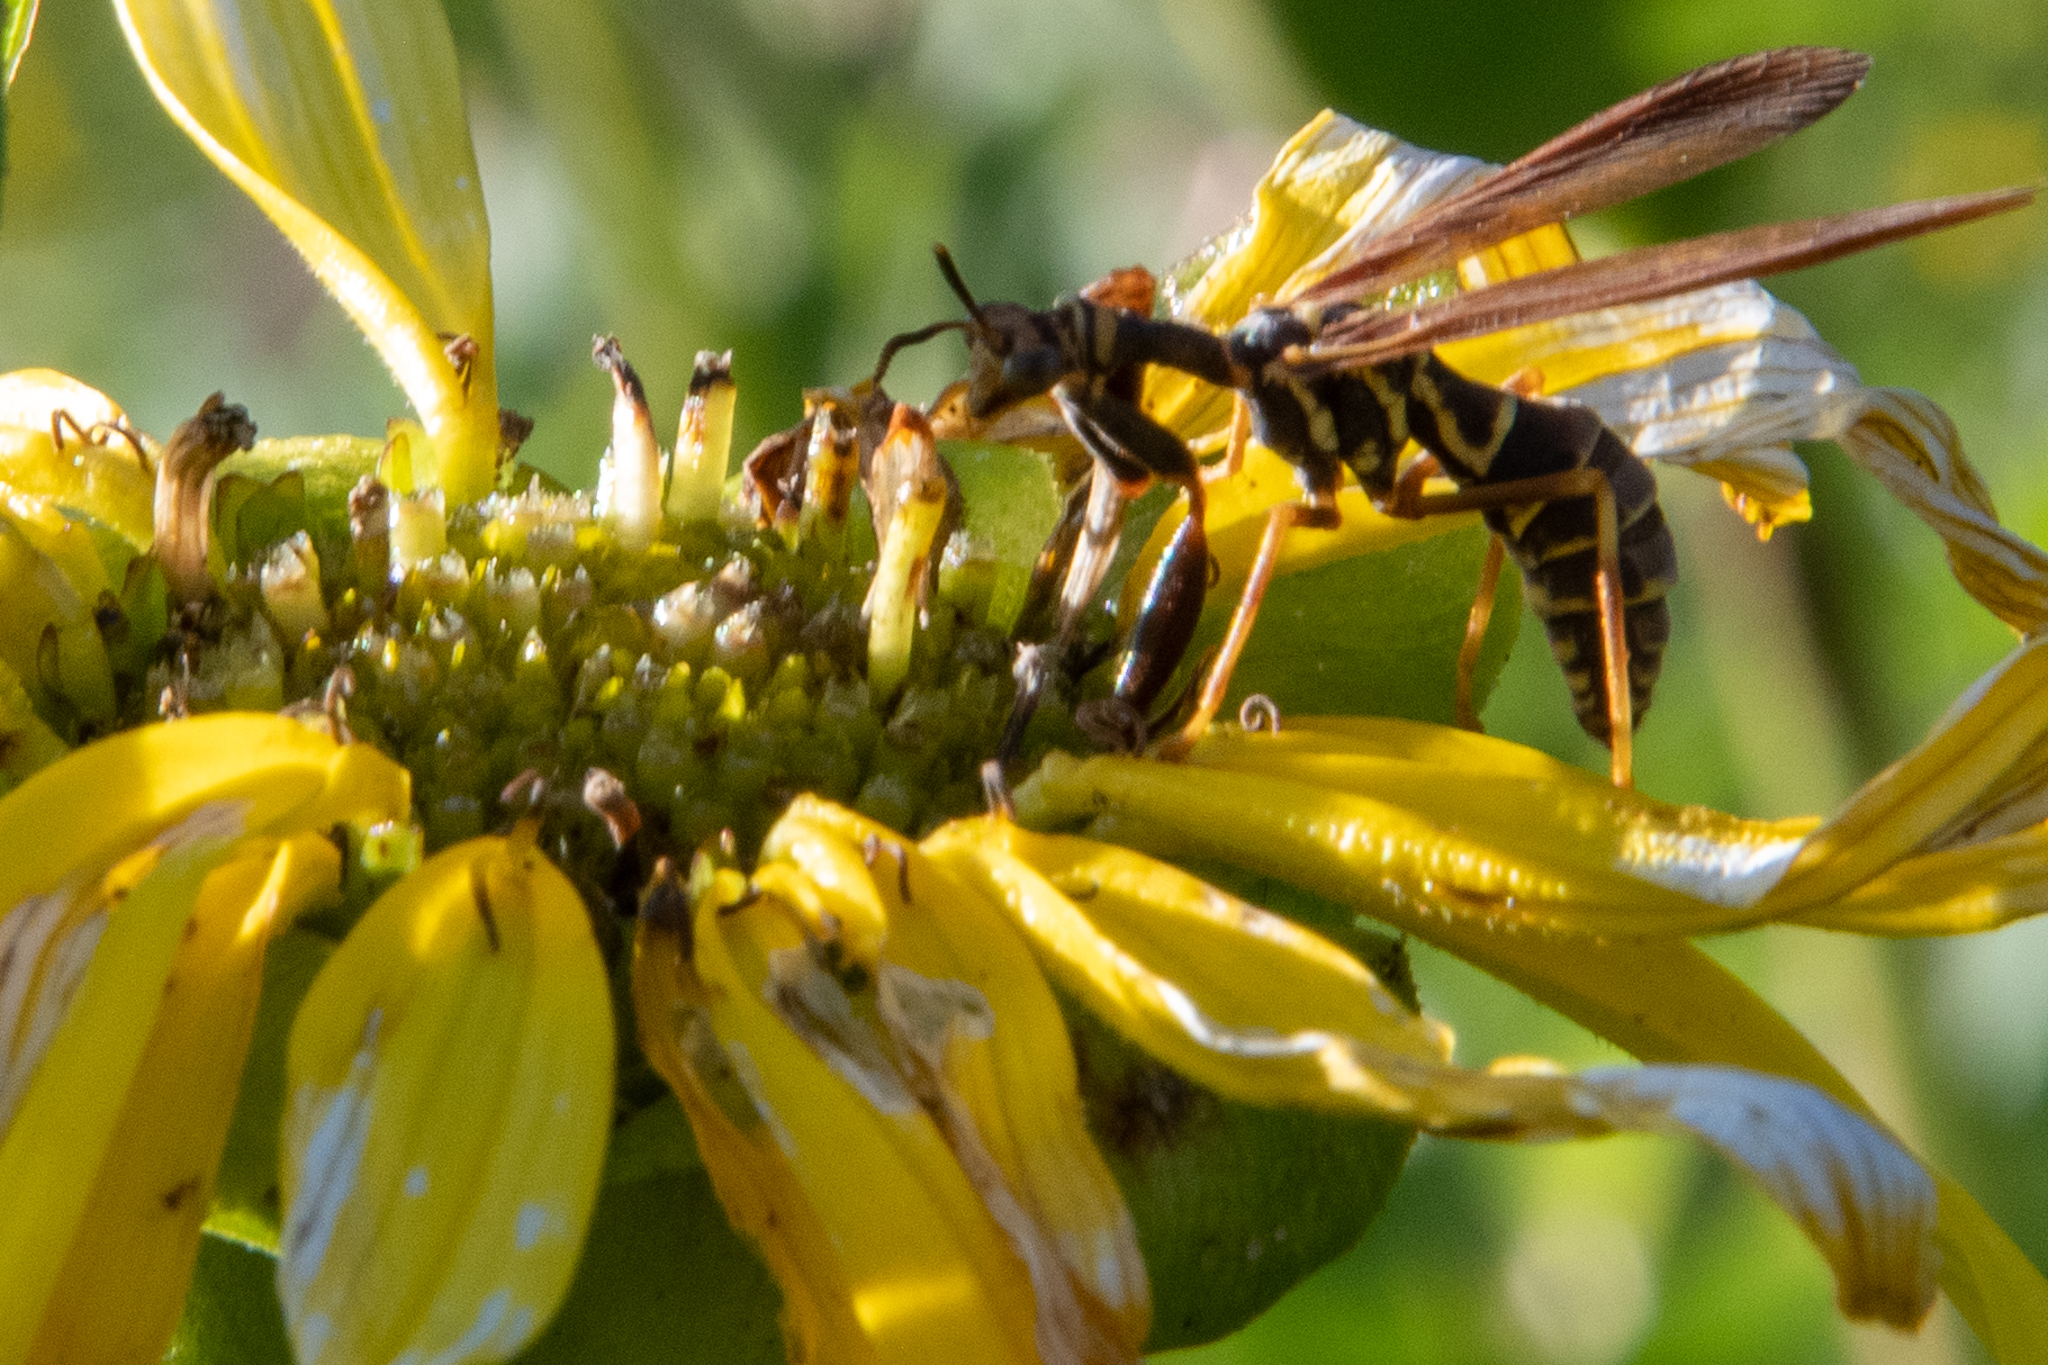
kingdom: Animalia
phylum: Arthropoda
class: Insecta
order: Neuroptera
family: Mantispidae
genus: Climaciella
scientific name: Climaciella brunnea
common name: Brown wasp mantidfly
